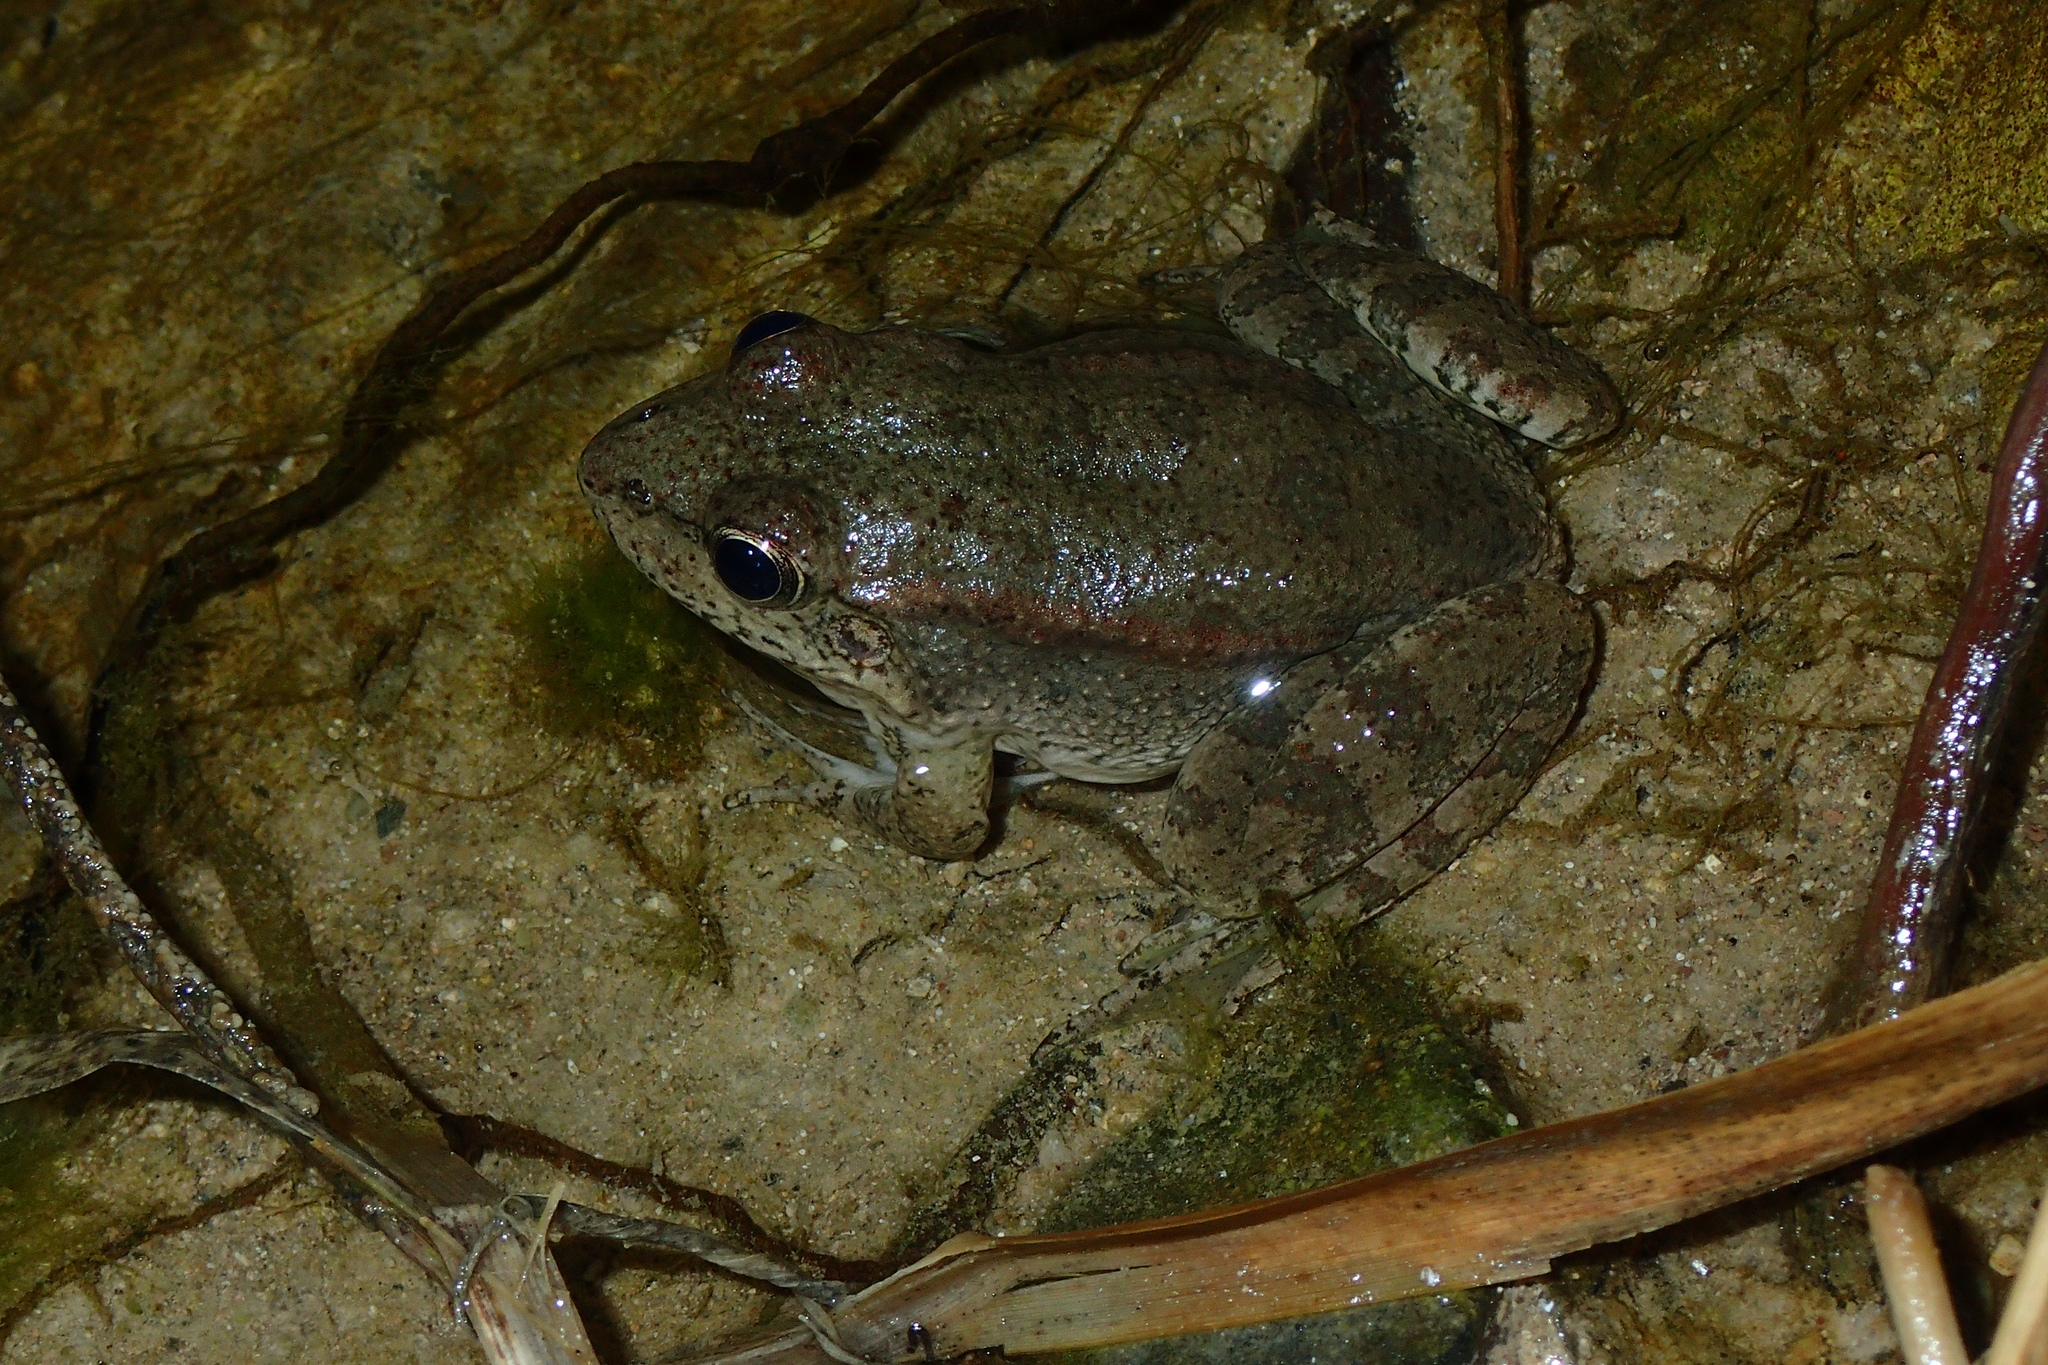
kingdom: Animalia
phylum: Chordata
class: Amphibia
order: Anura
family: Ranidae
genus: Pelophylax
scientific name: Pelophylax ridibundus
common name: Marsh frog
